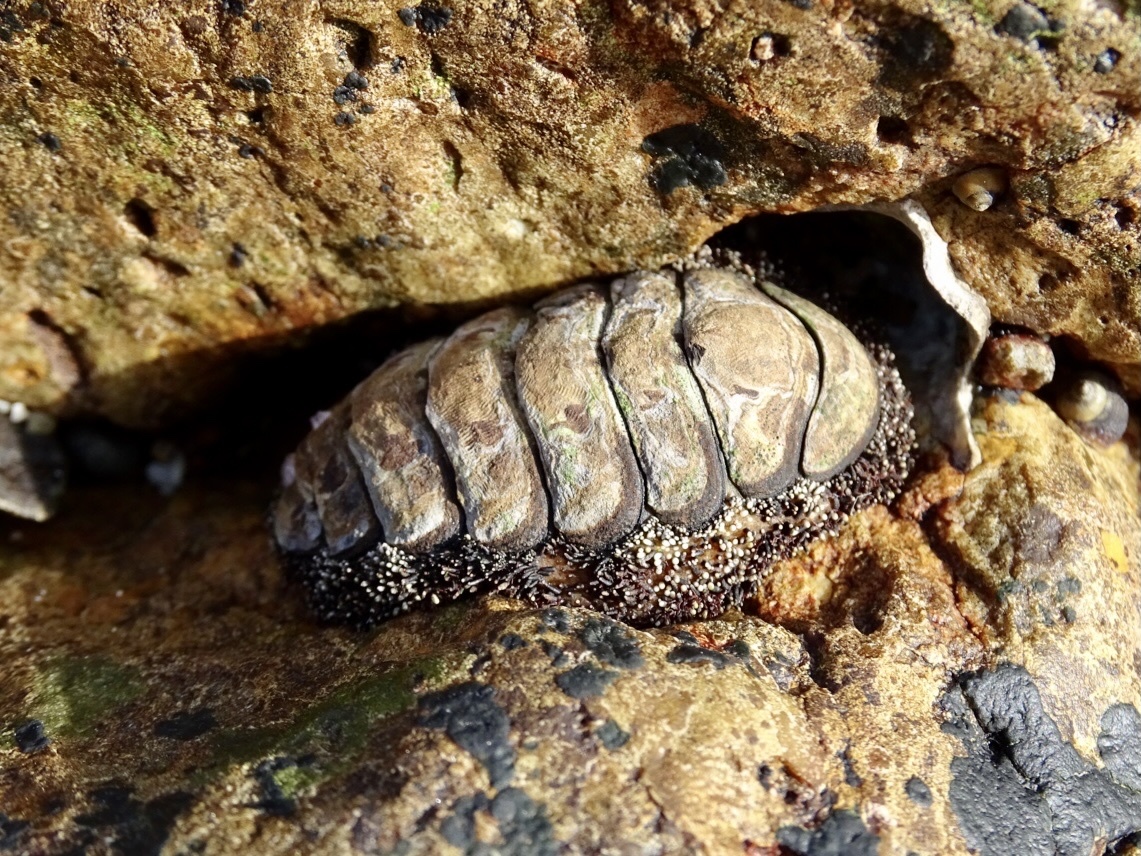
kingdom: Animalia
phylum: Mollusca
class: Polyplacophora
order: Chitonida
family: Chitonidae
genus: Liolophura
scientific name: Liolophura japonica
